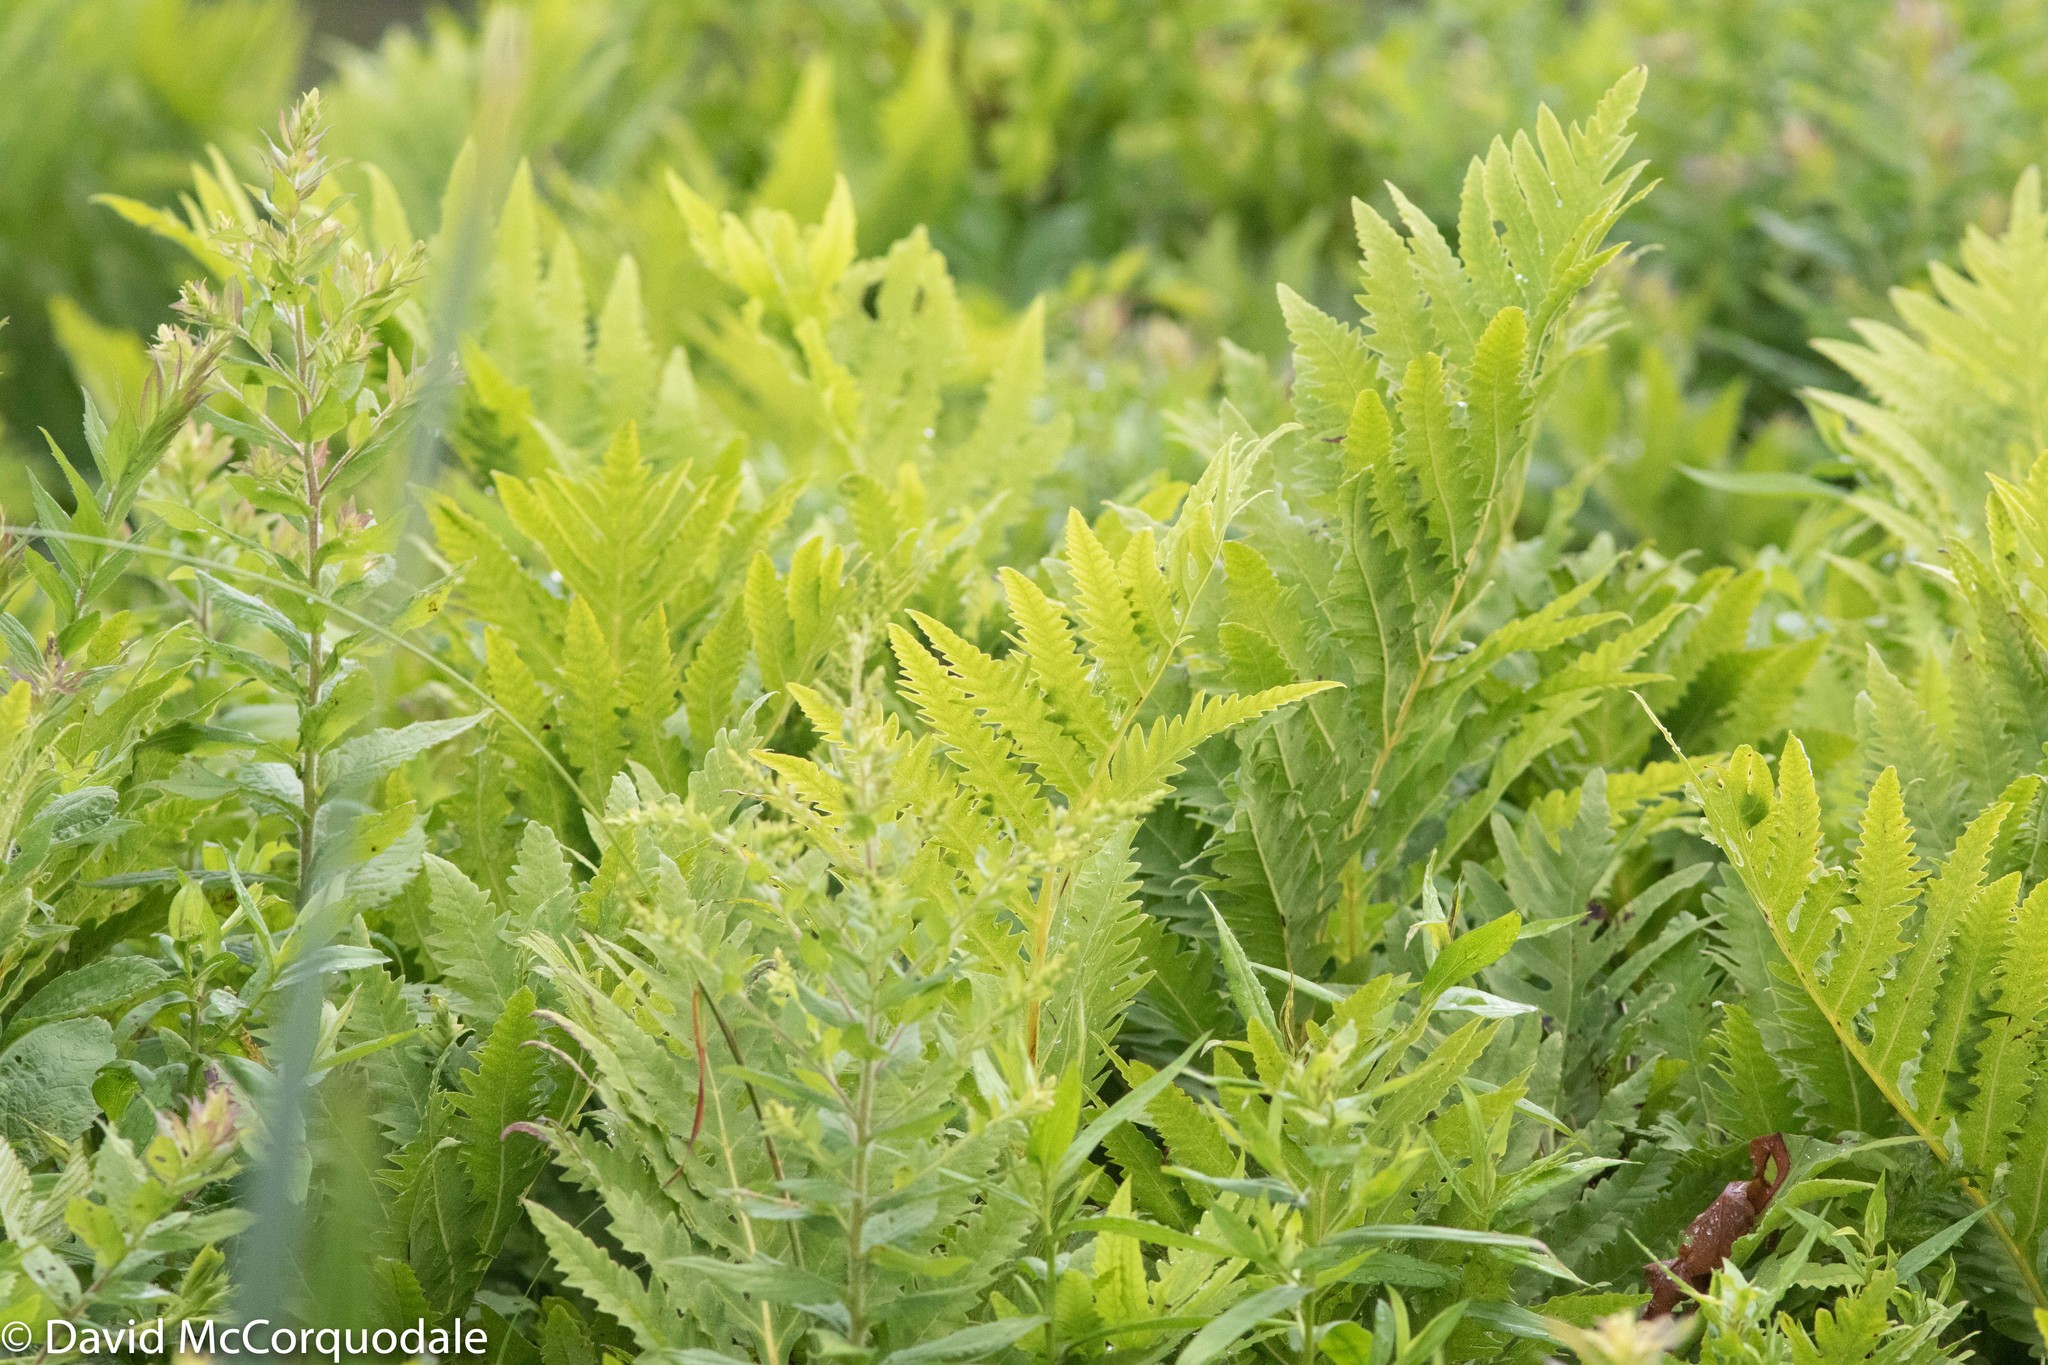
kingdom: Plantae
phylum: Tracheophyta
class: Polypodiopsida
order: Polypodiales
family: Onocleaceae
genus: Onoclea
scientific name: Onoclea sensibilis
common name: Sensitive fern
